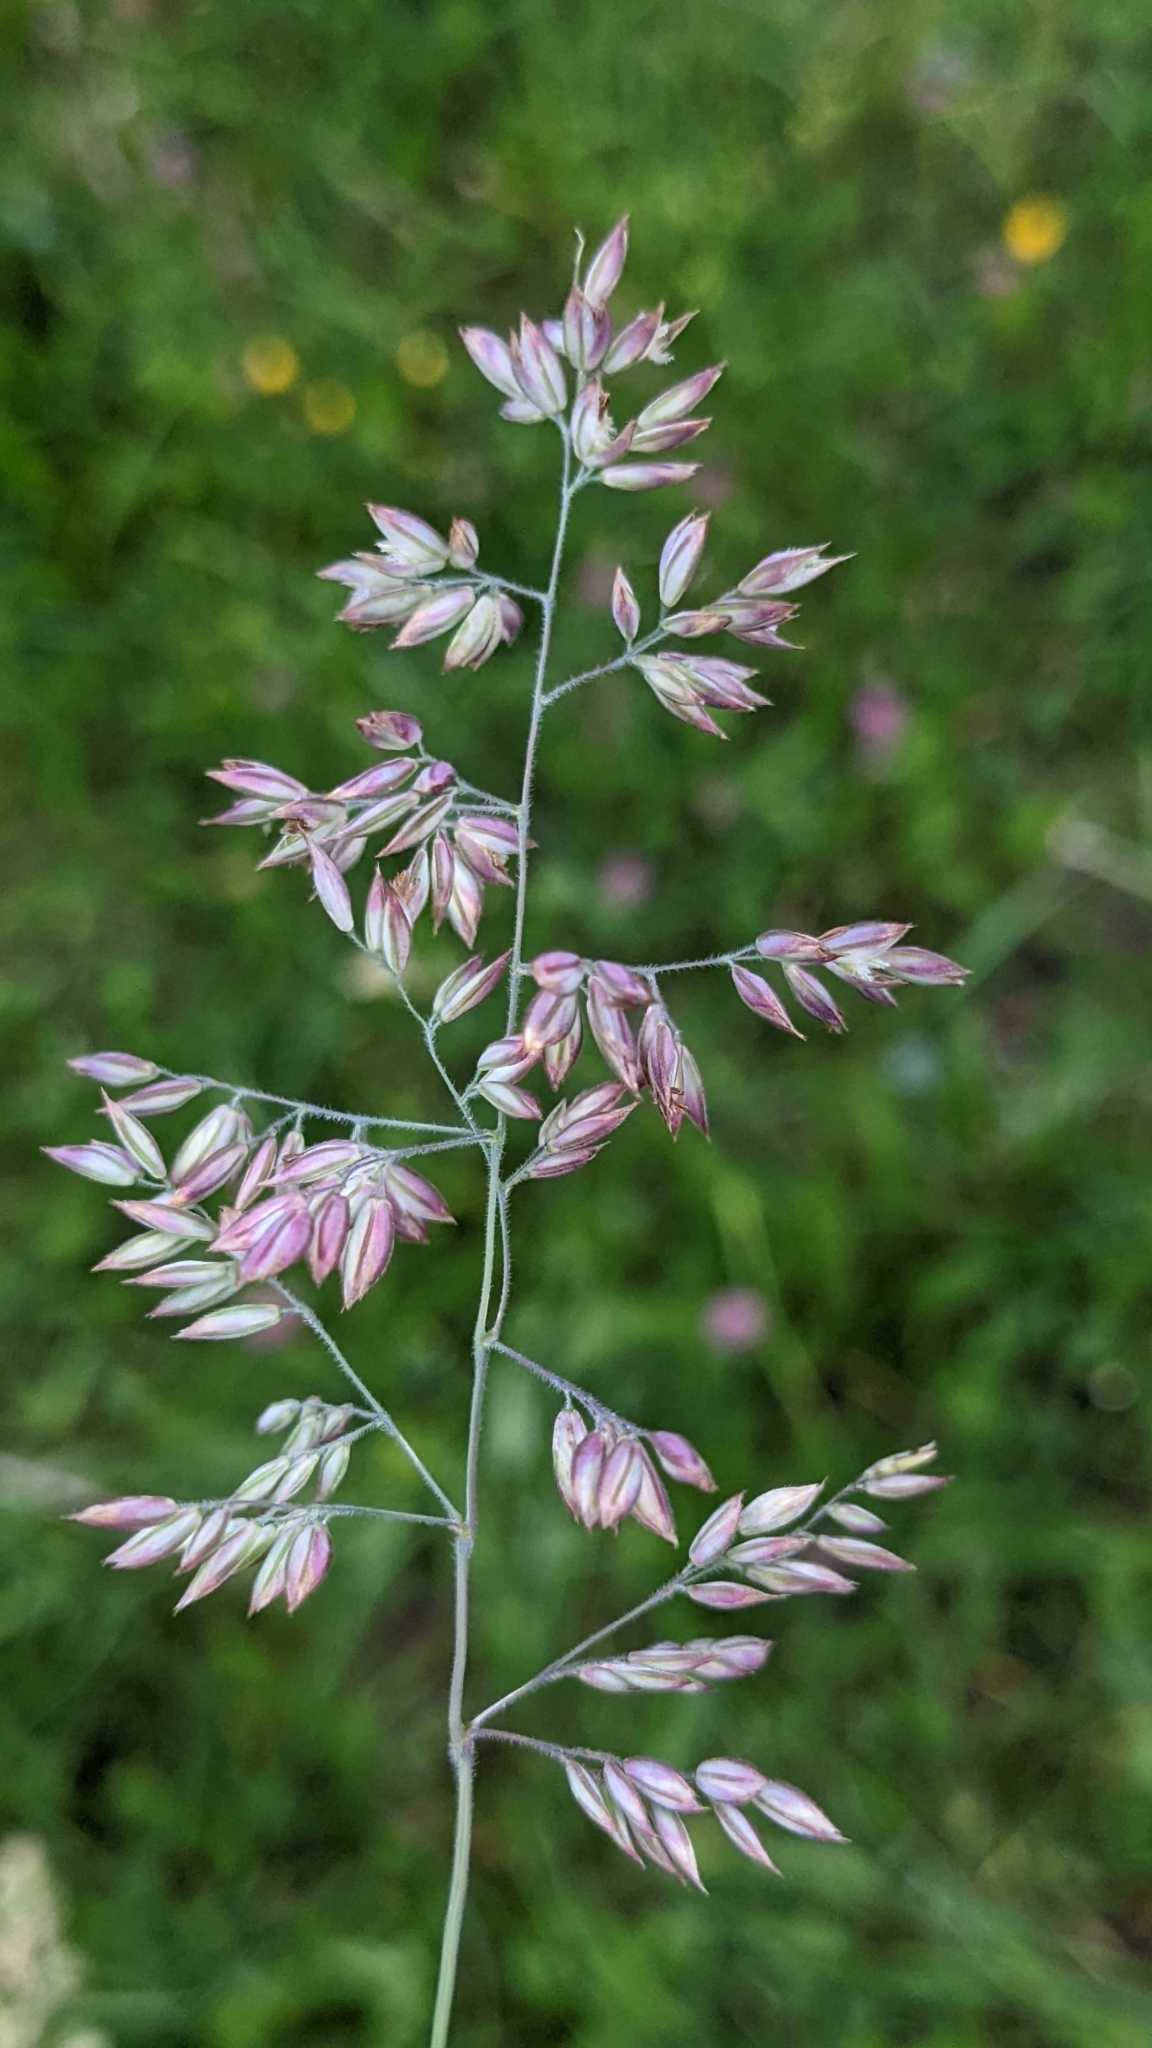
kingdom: Plantae
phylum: Tracheophyta
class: Liliopsida
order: Poales
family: Poaceae
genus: Holcus
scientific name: Holcus lanatus
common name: Yorkshire-fog
